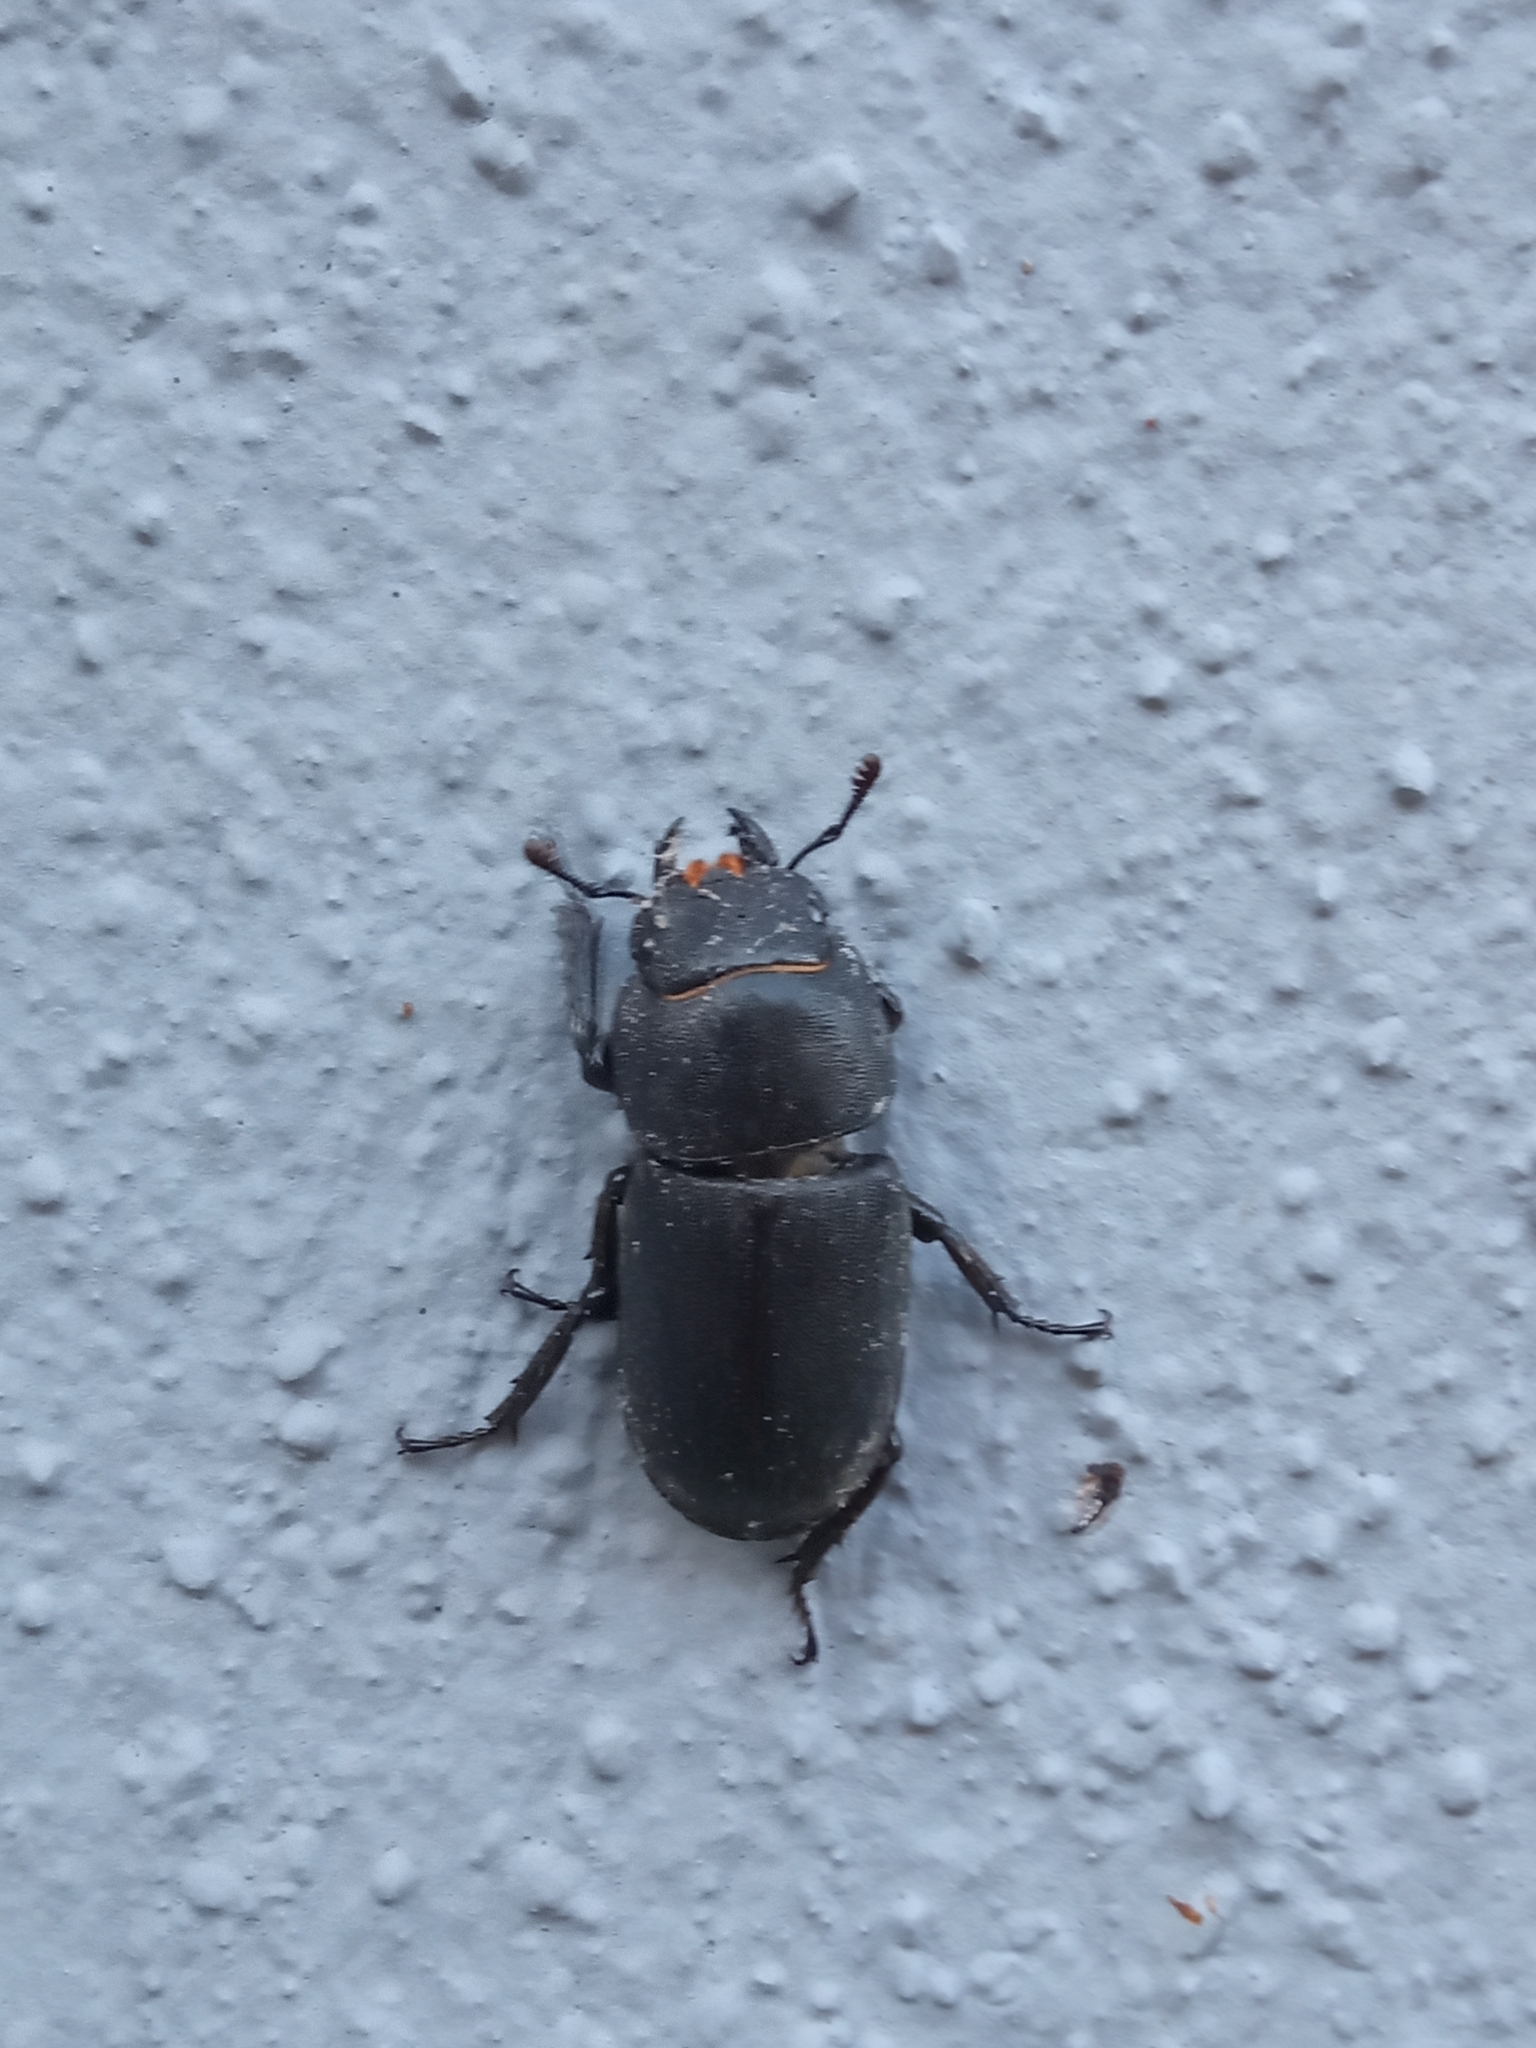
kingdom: Animalia
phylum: Arthropoda
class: Insecta
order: Coleoptera
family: Lucanidae
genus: Dorcus
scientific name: Dorcus parallelipipedus
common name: Lesser stag beetle
